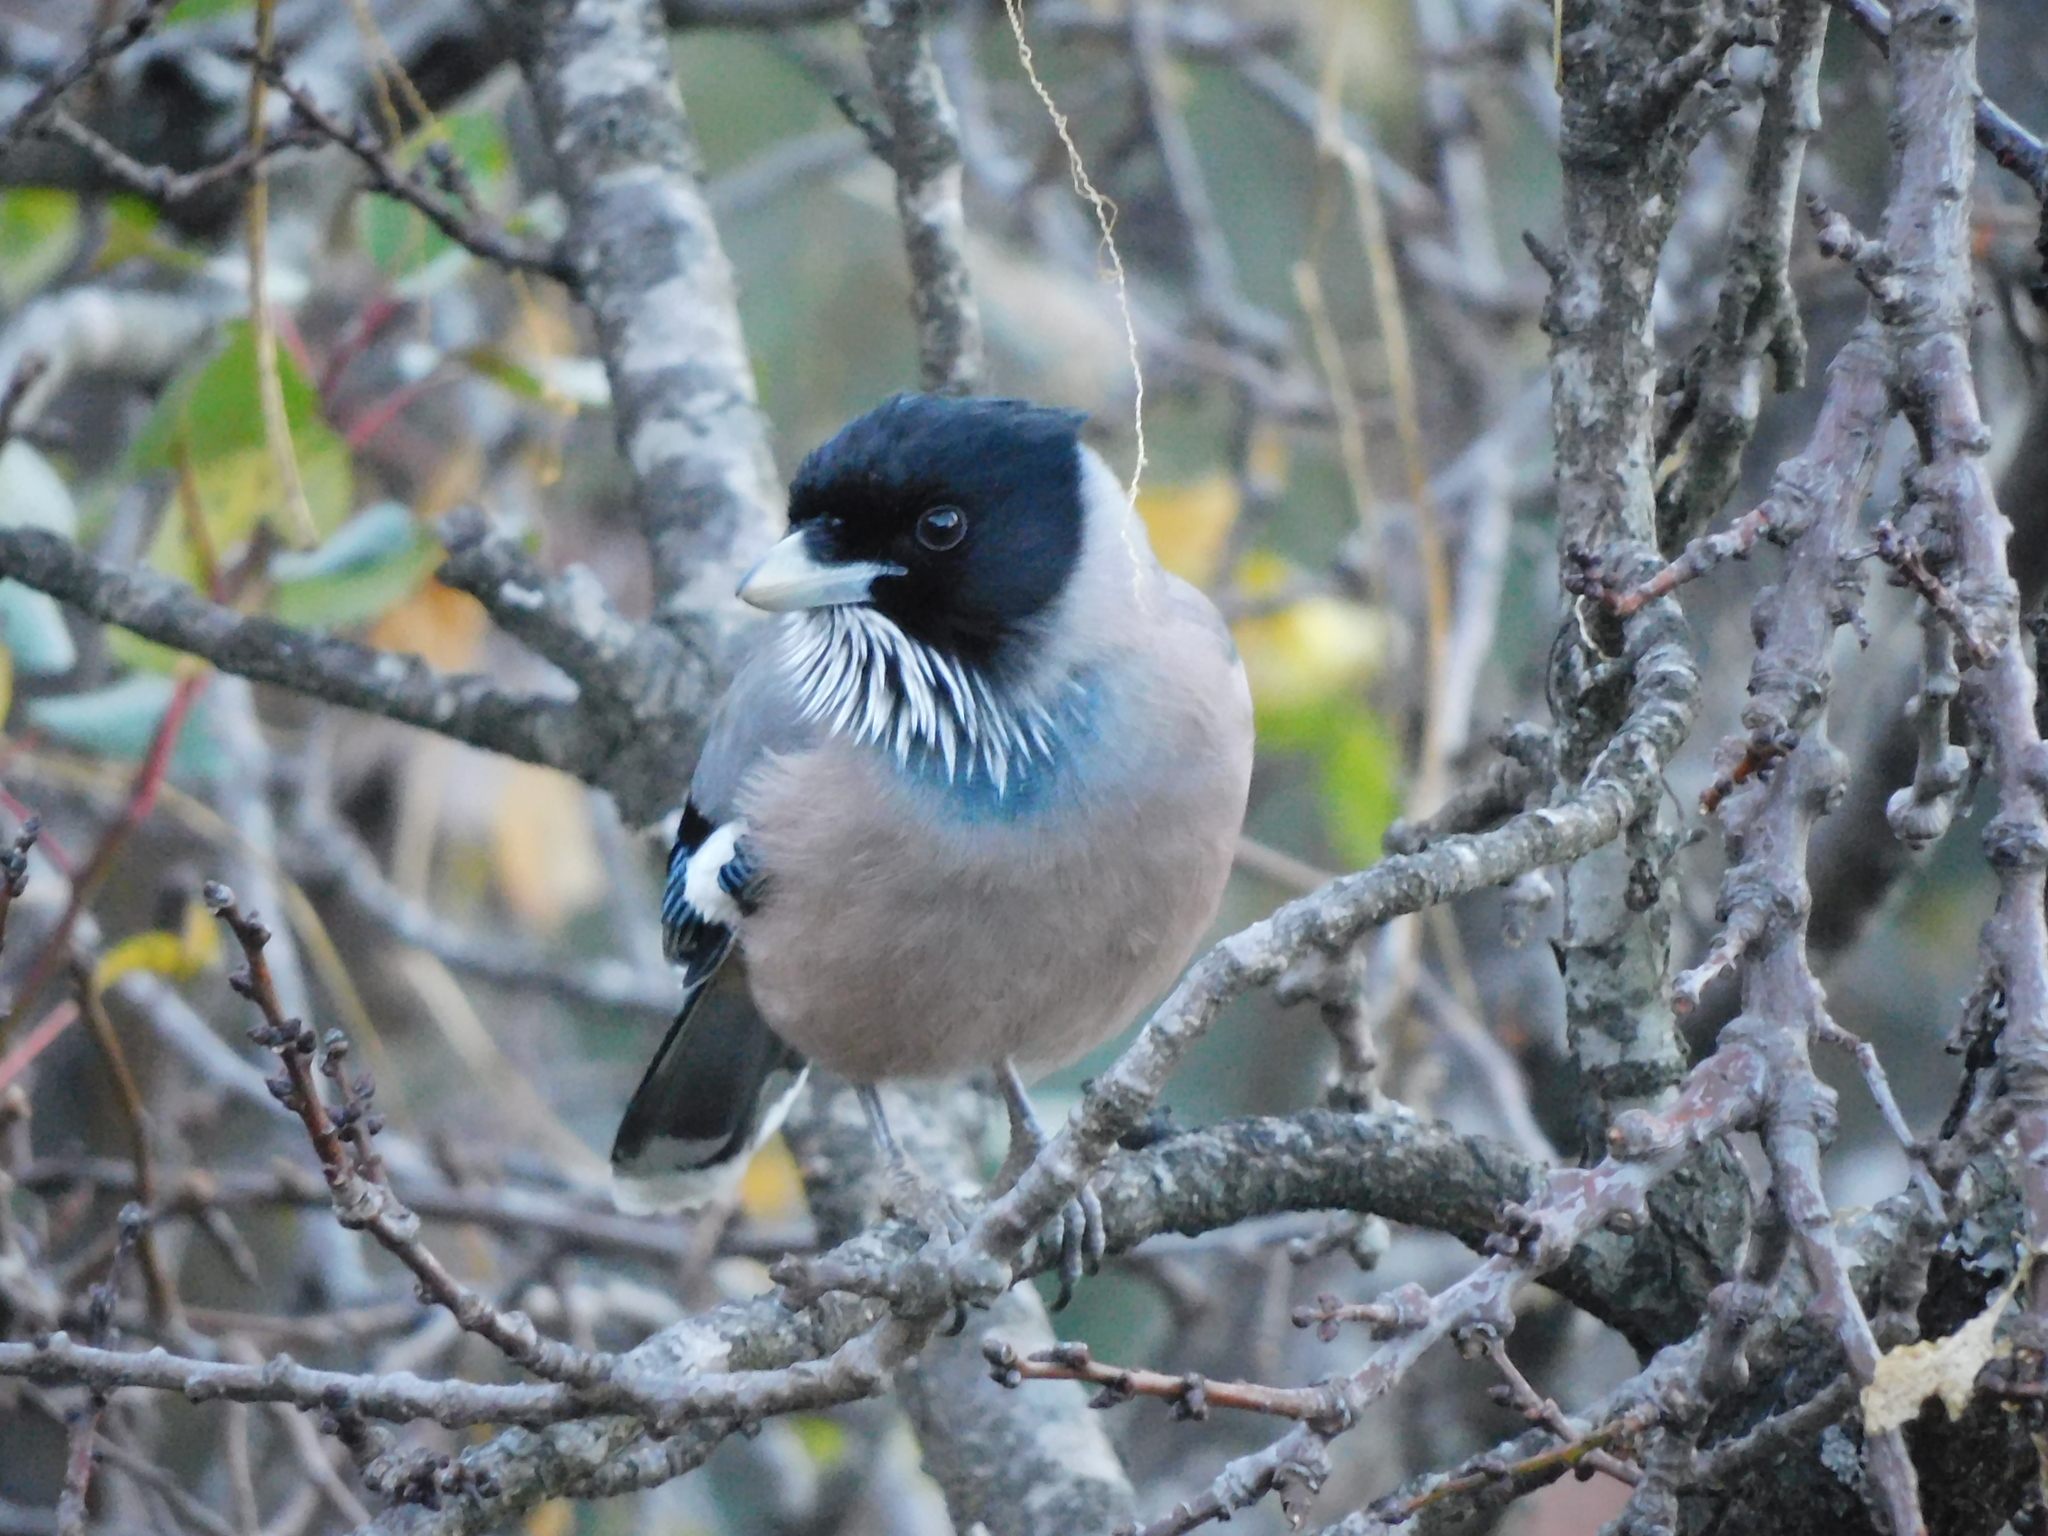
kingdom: Animalia
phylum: Chordata
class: Aves
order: Passeriformes
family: Corvidae
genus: Garrulus
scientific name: Garrulus lanceolatus
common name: Black-headed jay
